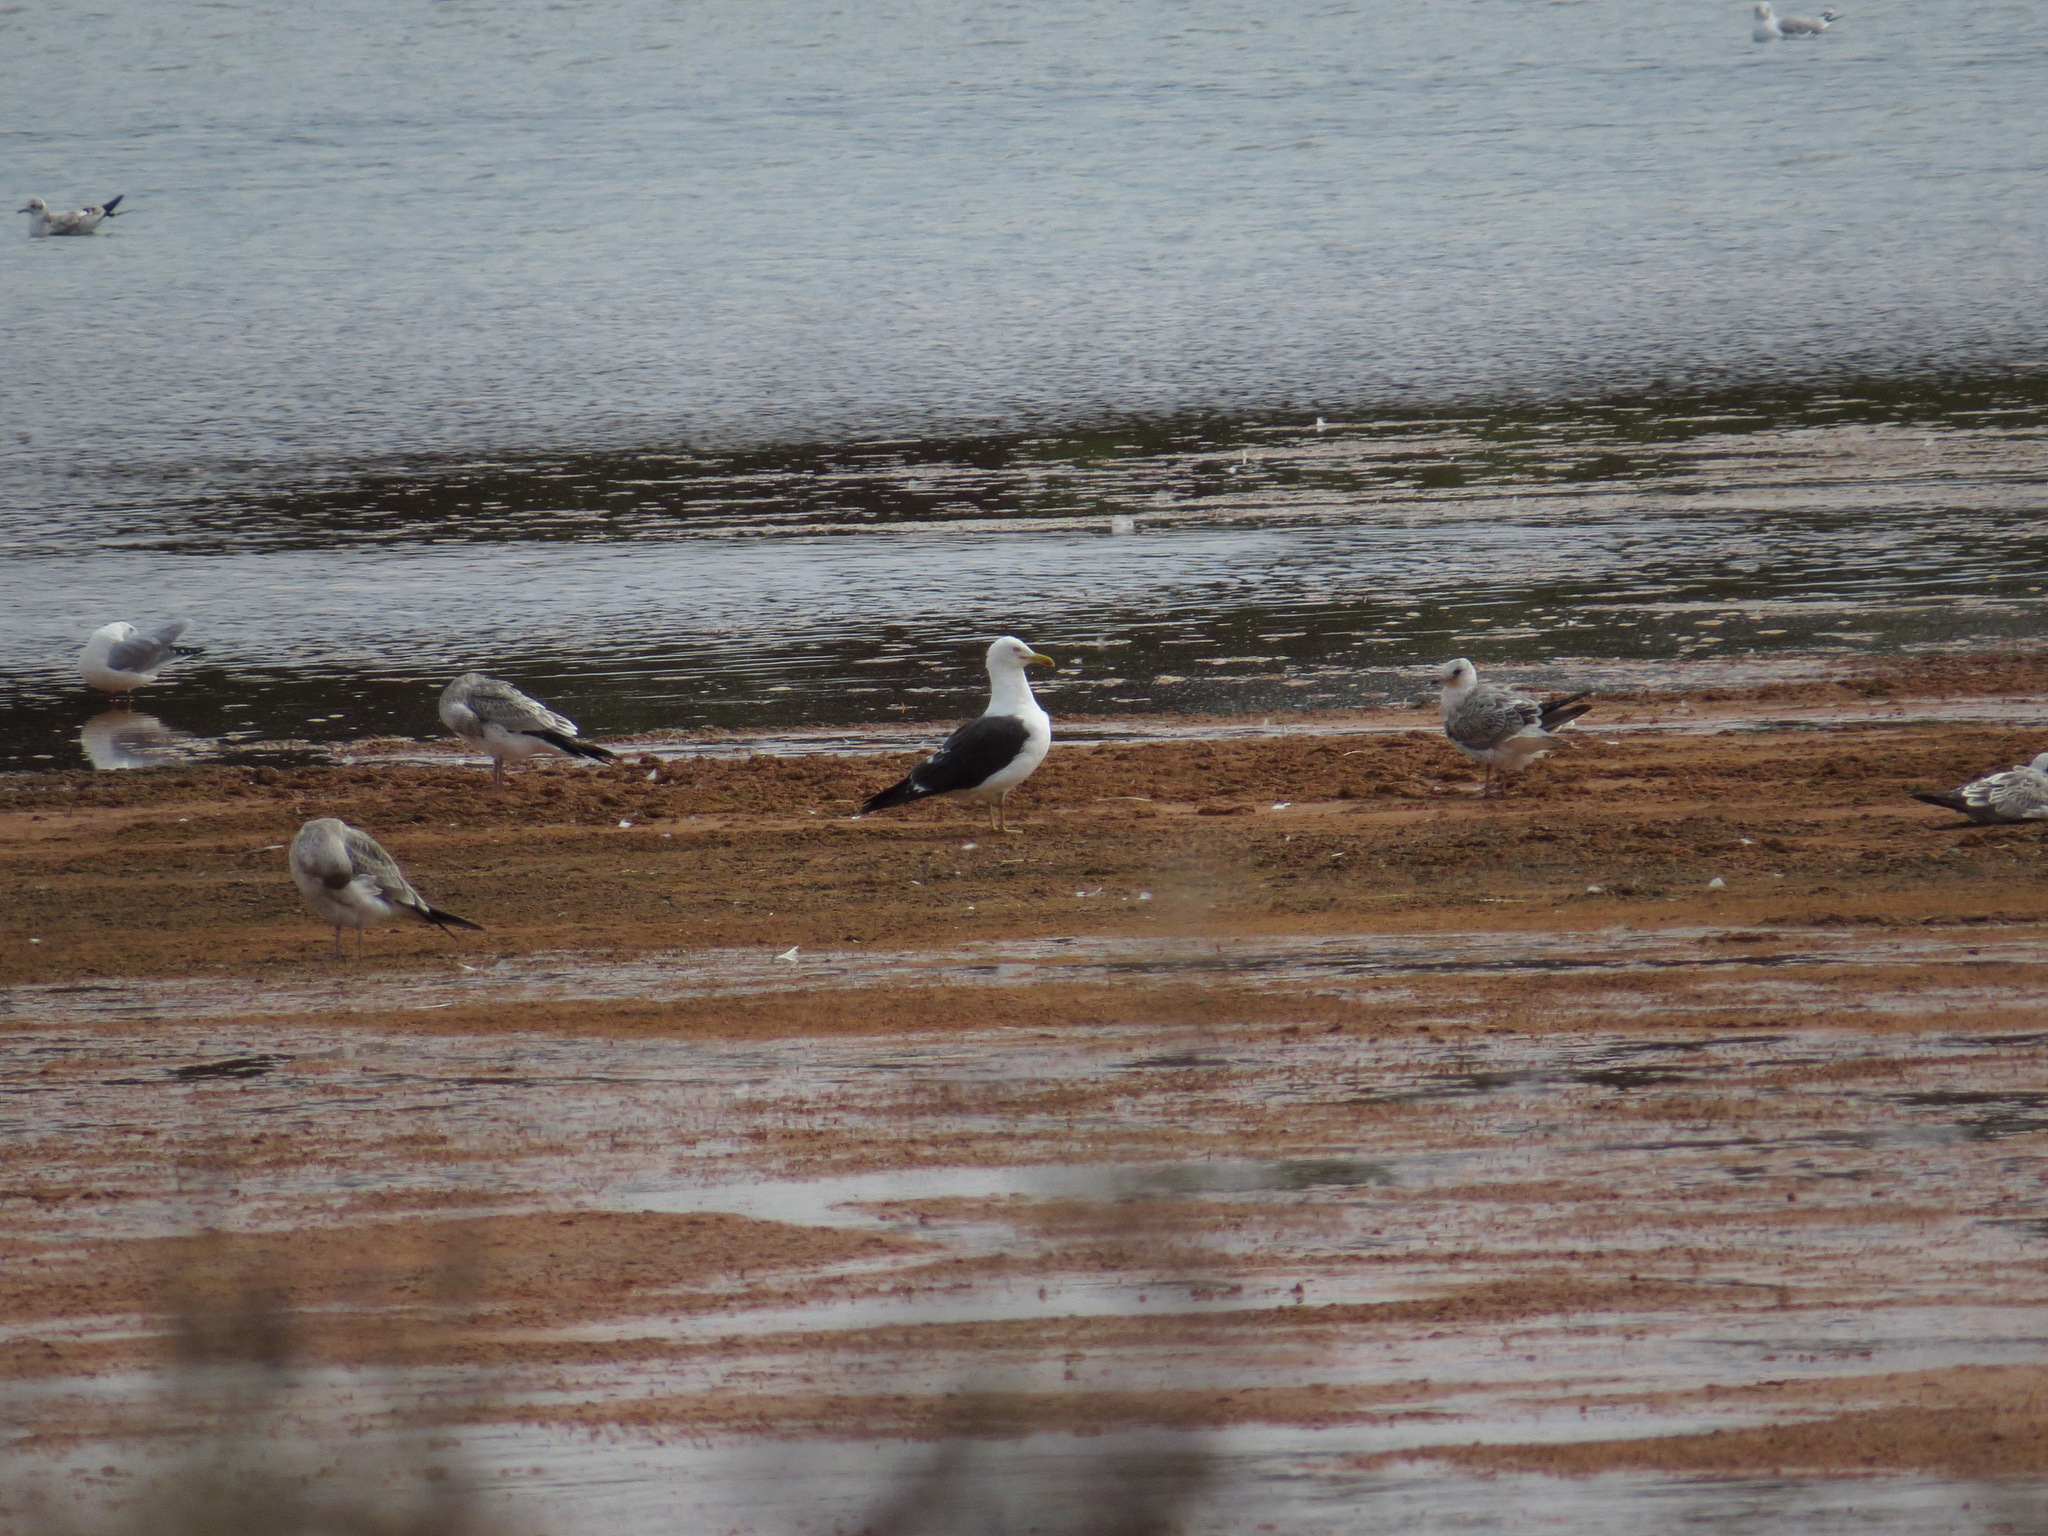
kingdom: Animalia
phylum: Chordata
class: Aves
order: Charadriiformes
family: Laridae
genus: Larus
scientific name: Larus fuscus
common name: Lesser black-backed gull
